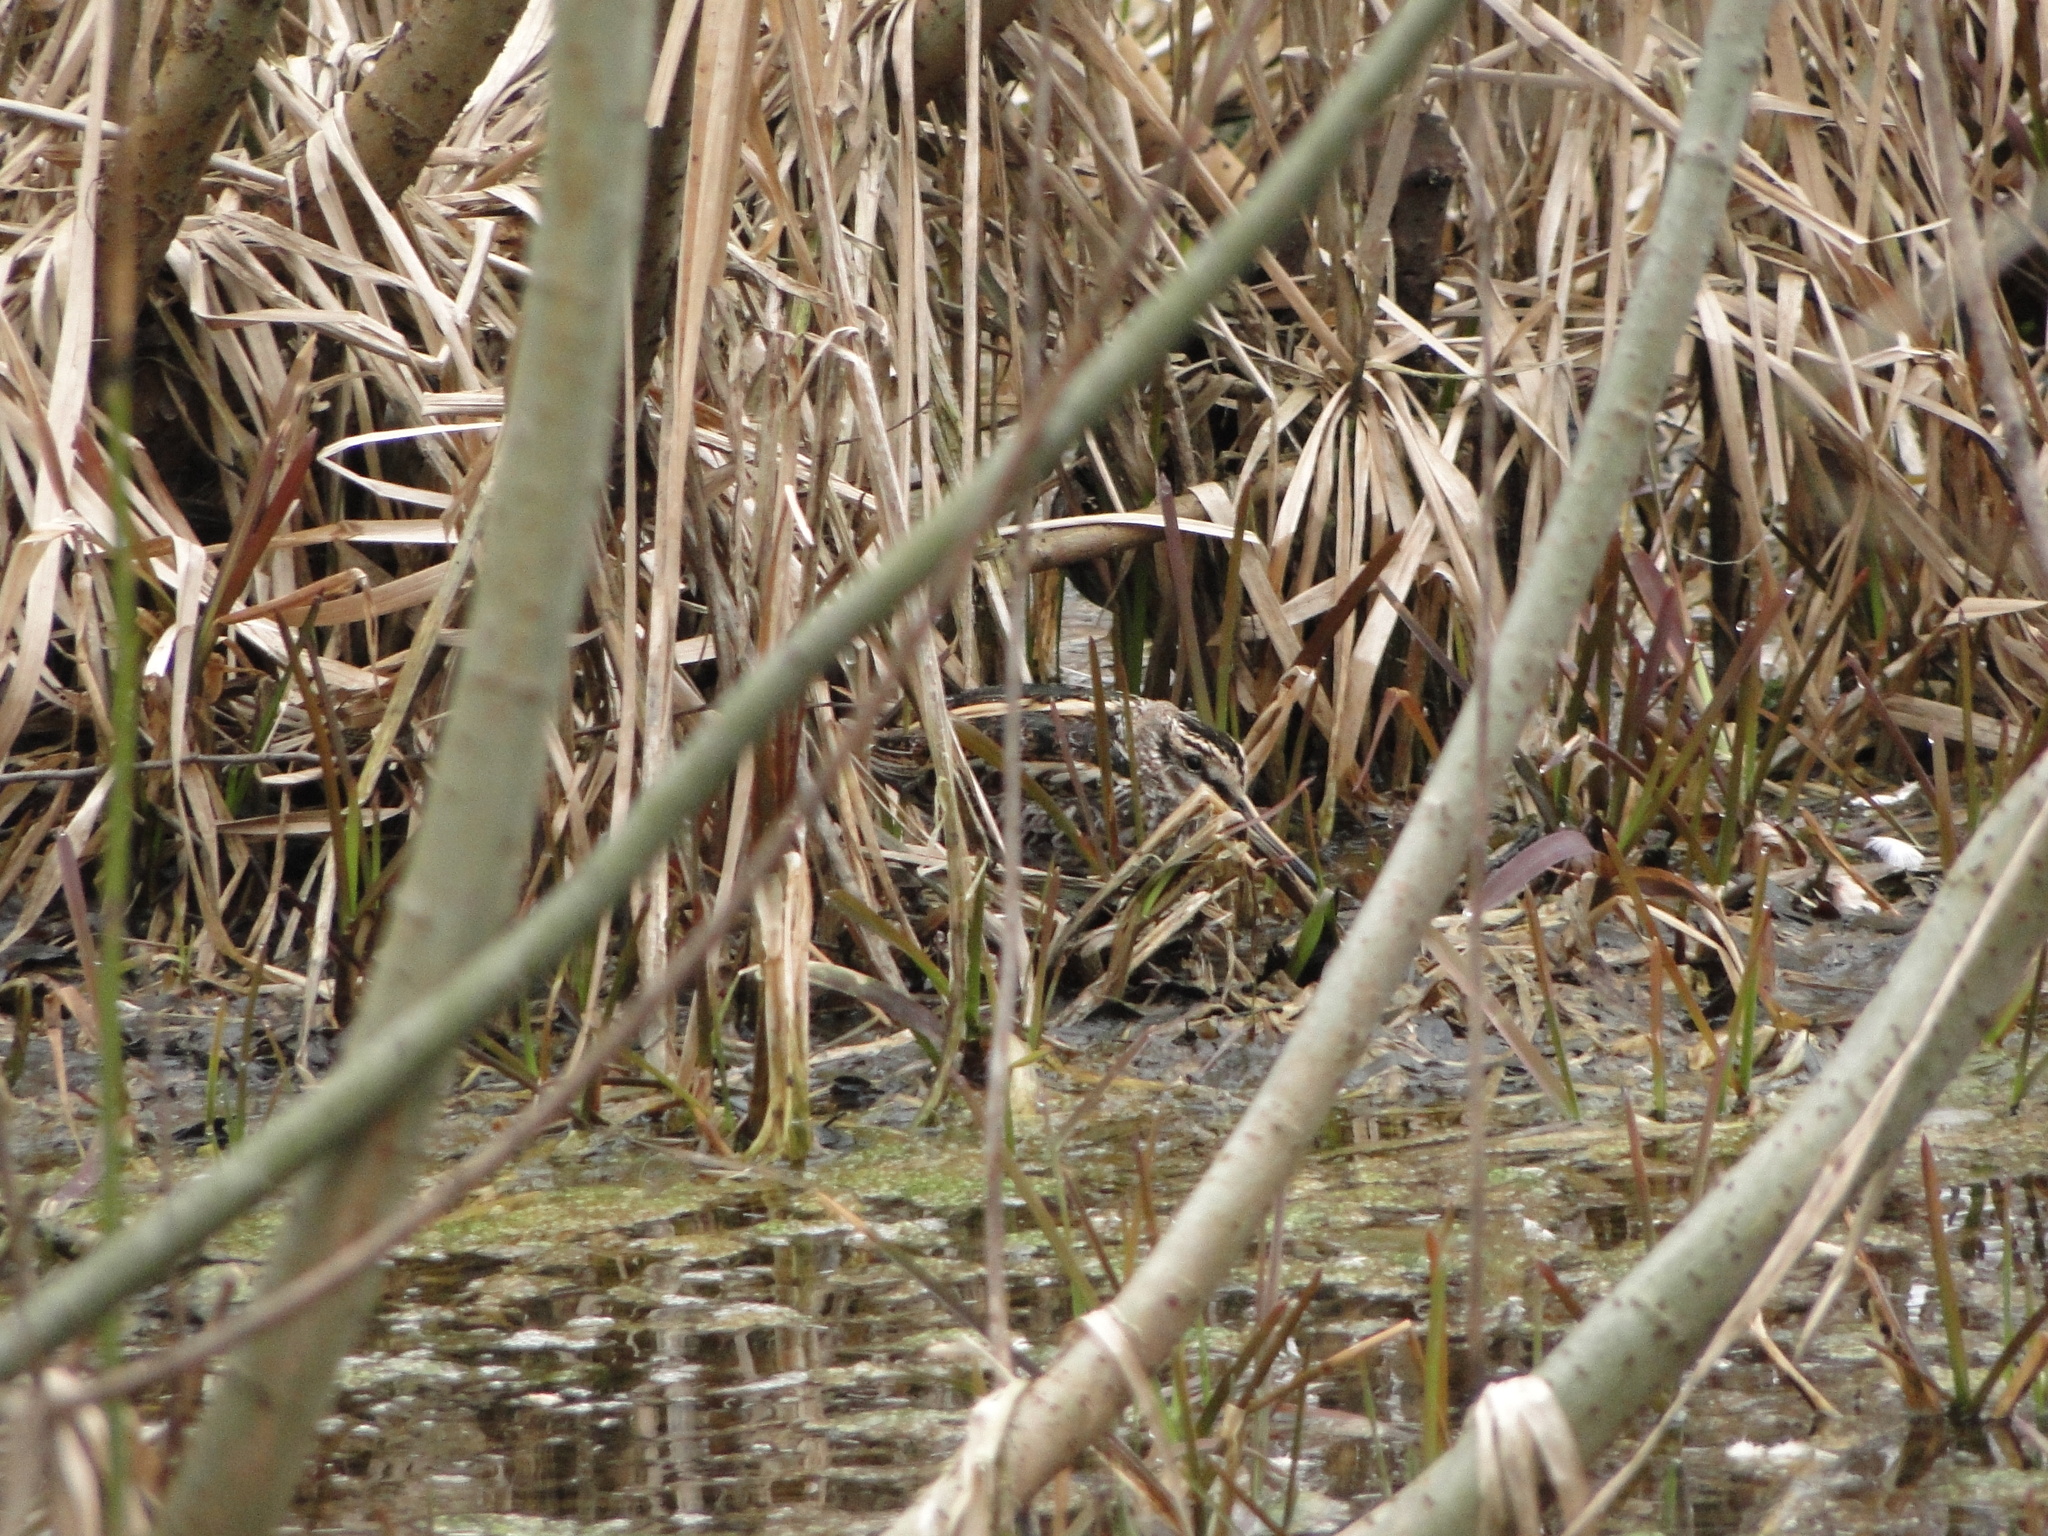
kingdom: Animalia
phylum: Chordata
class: Aves
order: Charadriiformes
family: Scolopacidae
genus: Lymnocryptes
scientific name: Lymnocryptes minimus
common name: Jack snipe
